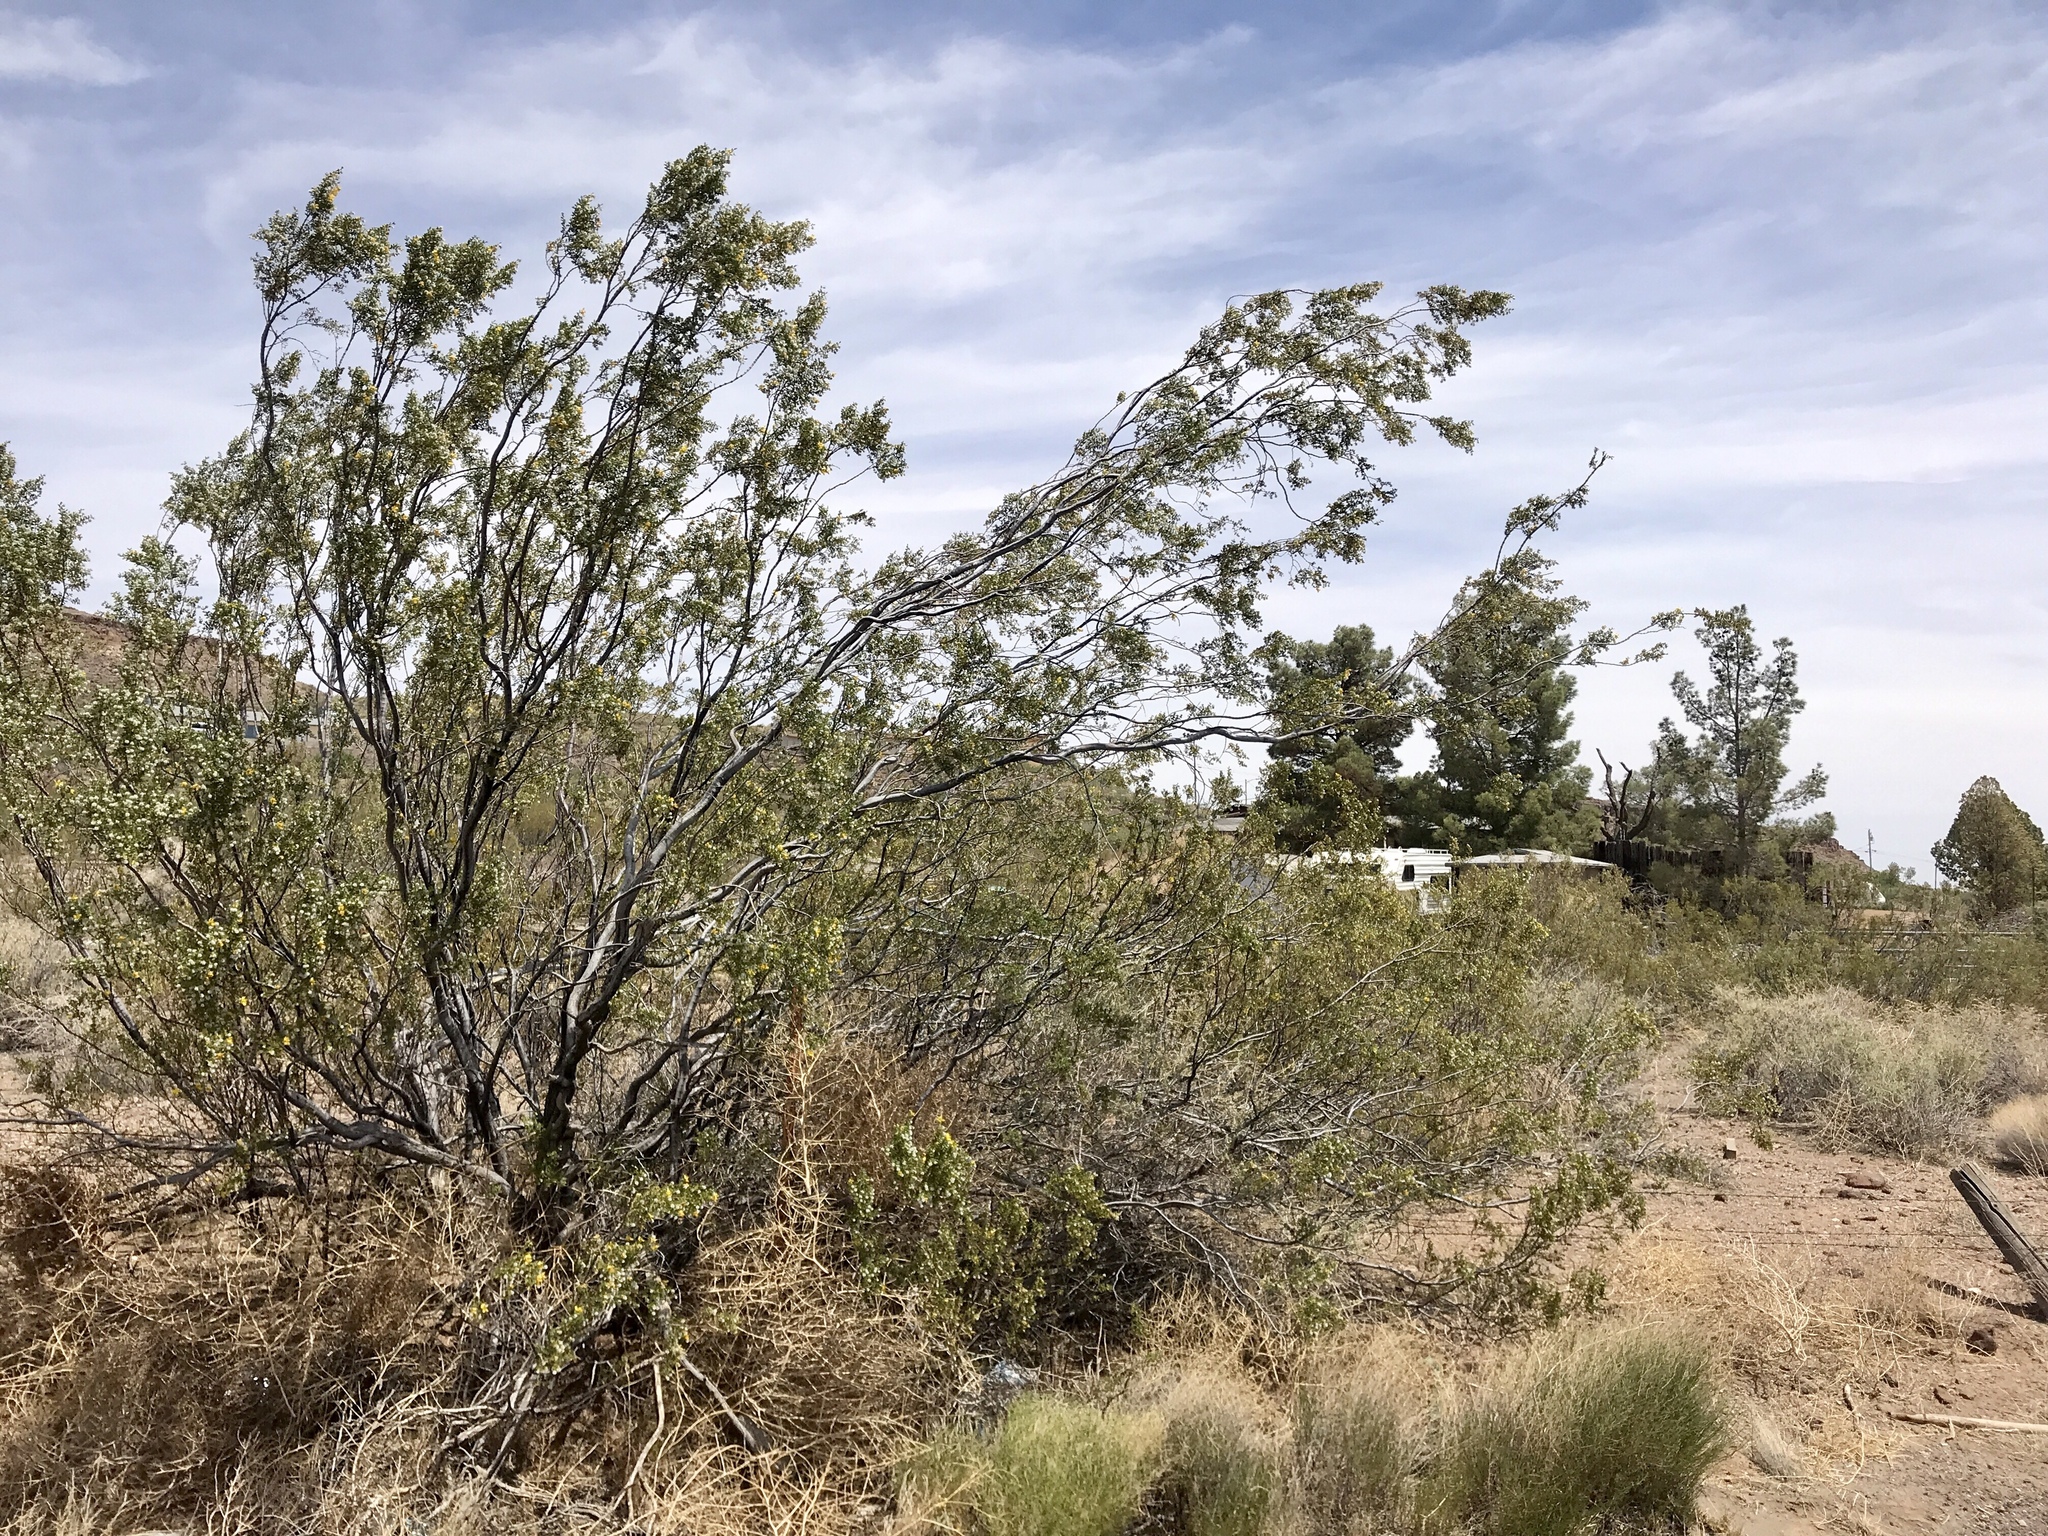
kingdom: Plantae
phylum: Tracheophyta
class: Magnoliopsida
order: Zygophyllales
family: Zygophyllaceae
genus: Larrea
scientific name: Larrea tridentata
